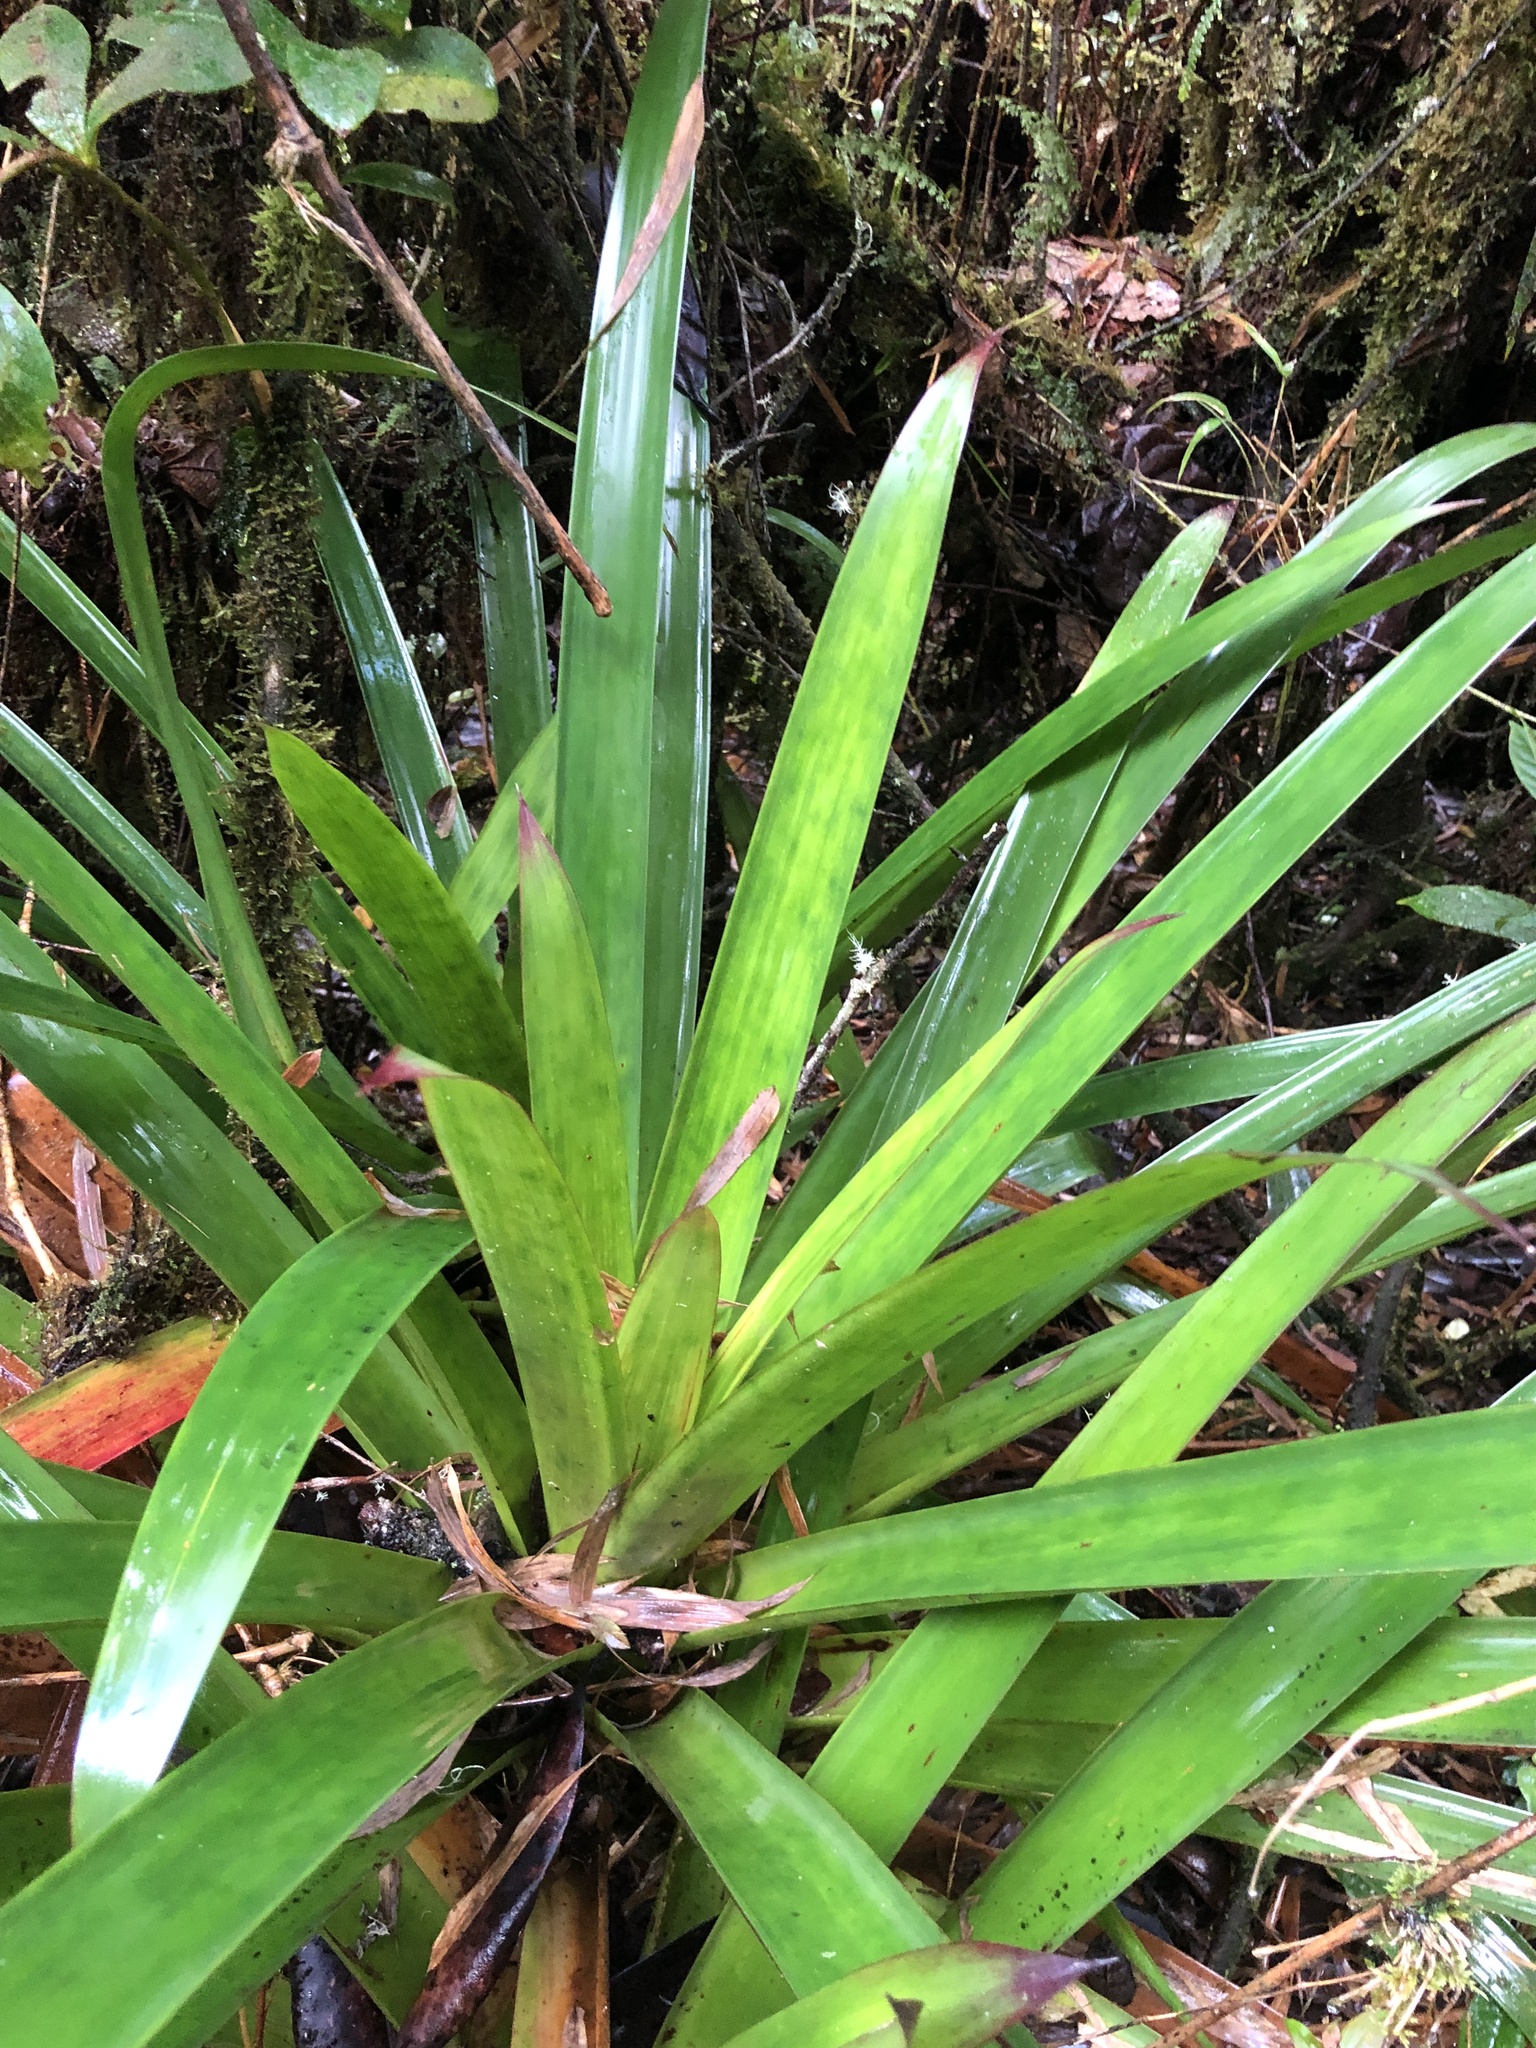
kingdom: Plantae
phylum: Tracheophyta
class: Liliopsida
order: Poales
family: Bromeliaceae
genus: Guzmania
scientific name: Guzmania coriostachya
